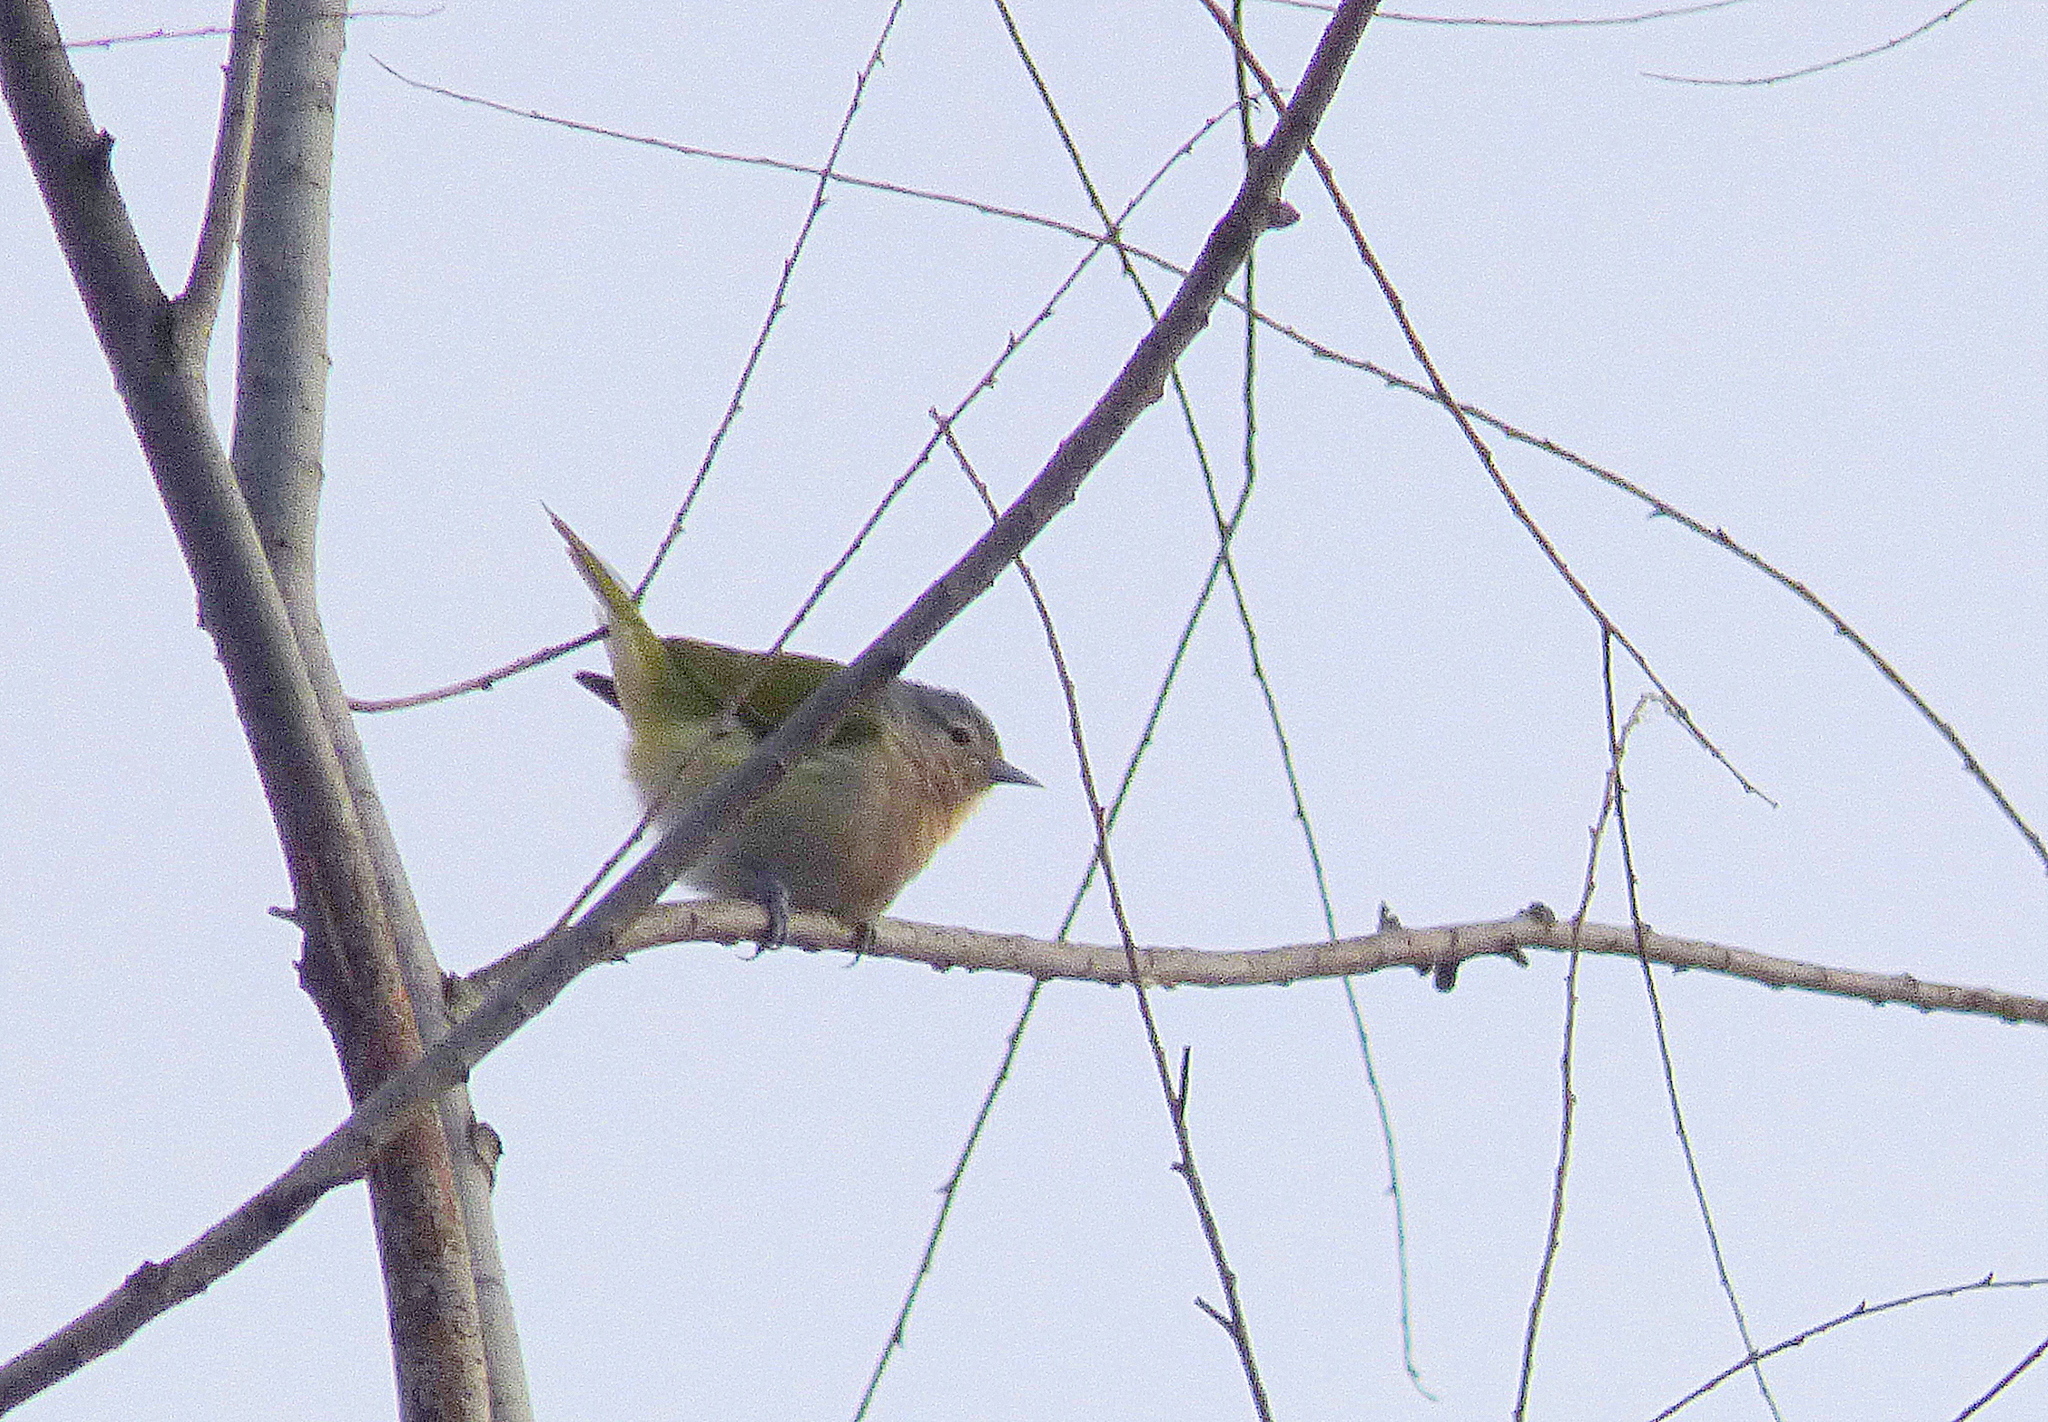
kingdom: Animalia
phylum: Chordata
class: Aves
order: Passeriformes
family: Thraupidae
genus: Conirostrum
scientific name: Conirostrum speciosum
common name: Chestnut-vented conebill
